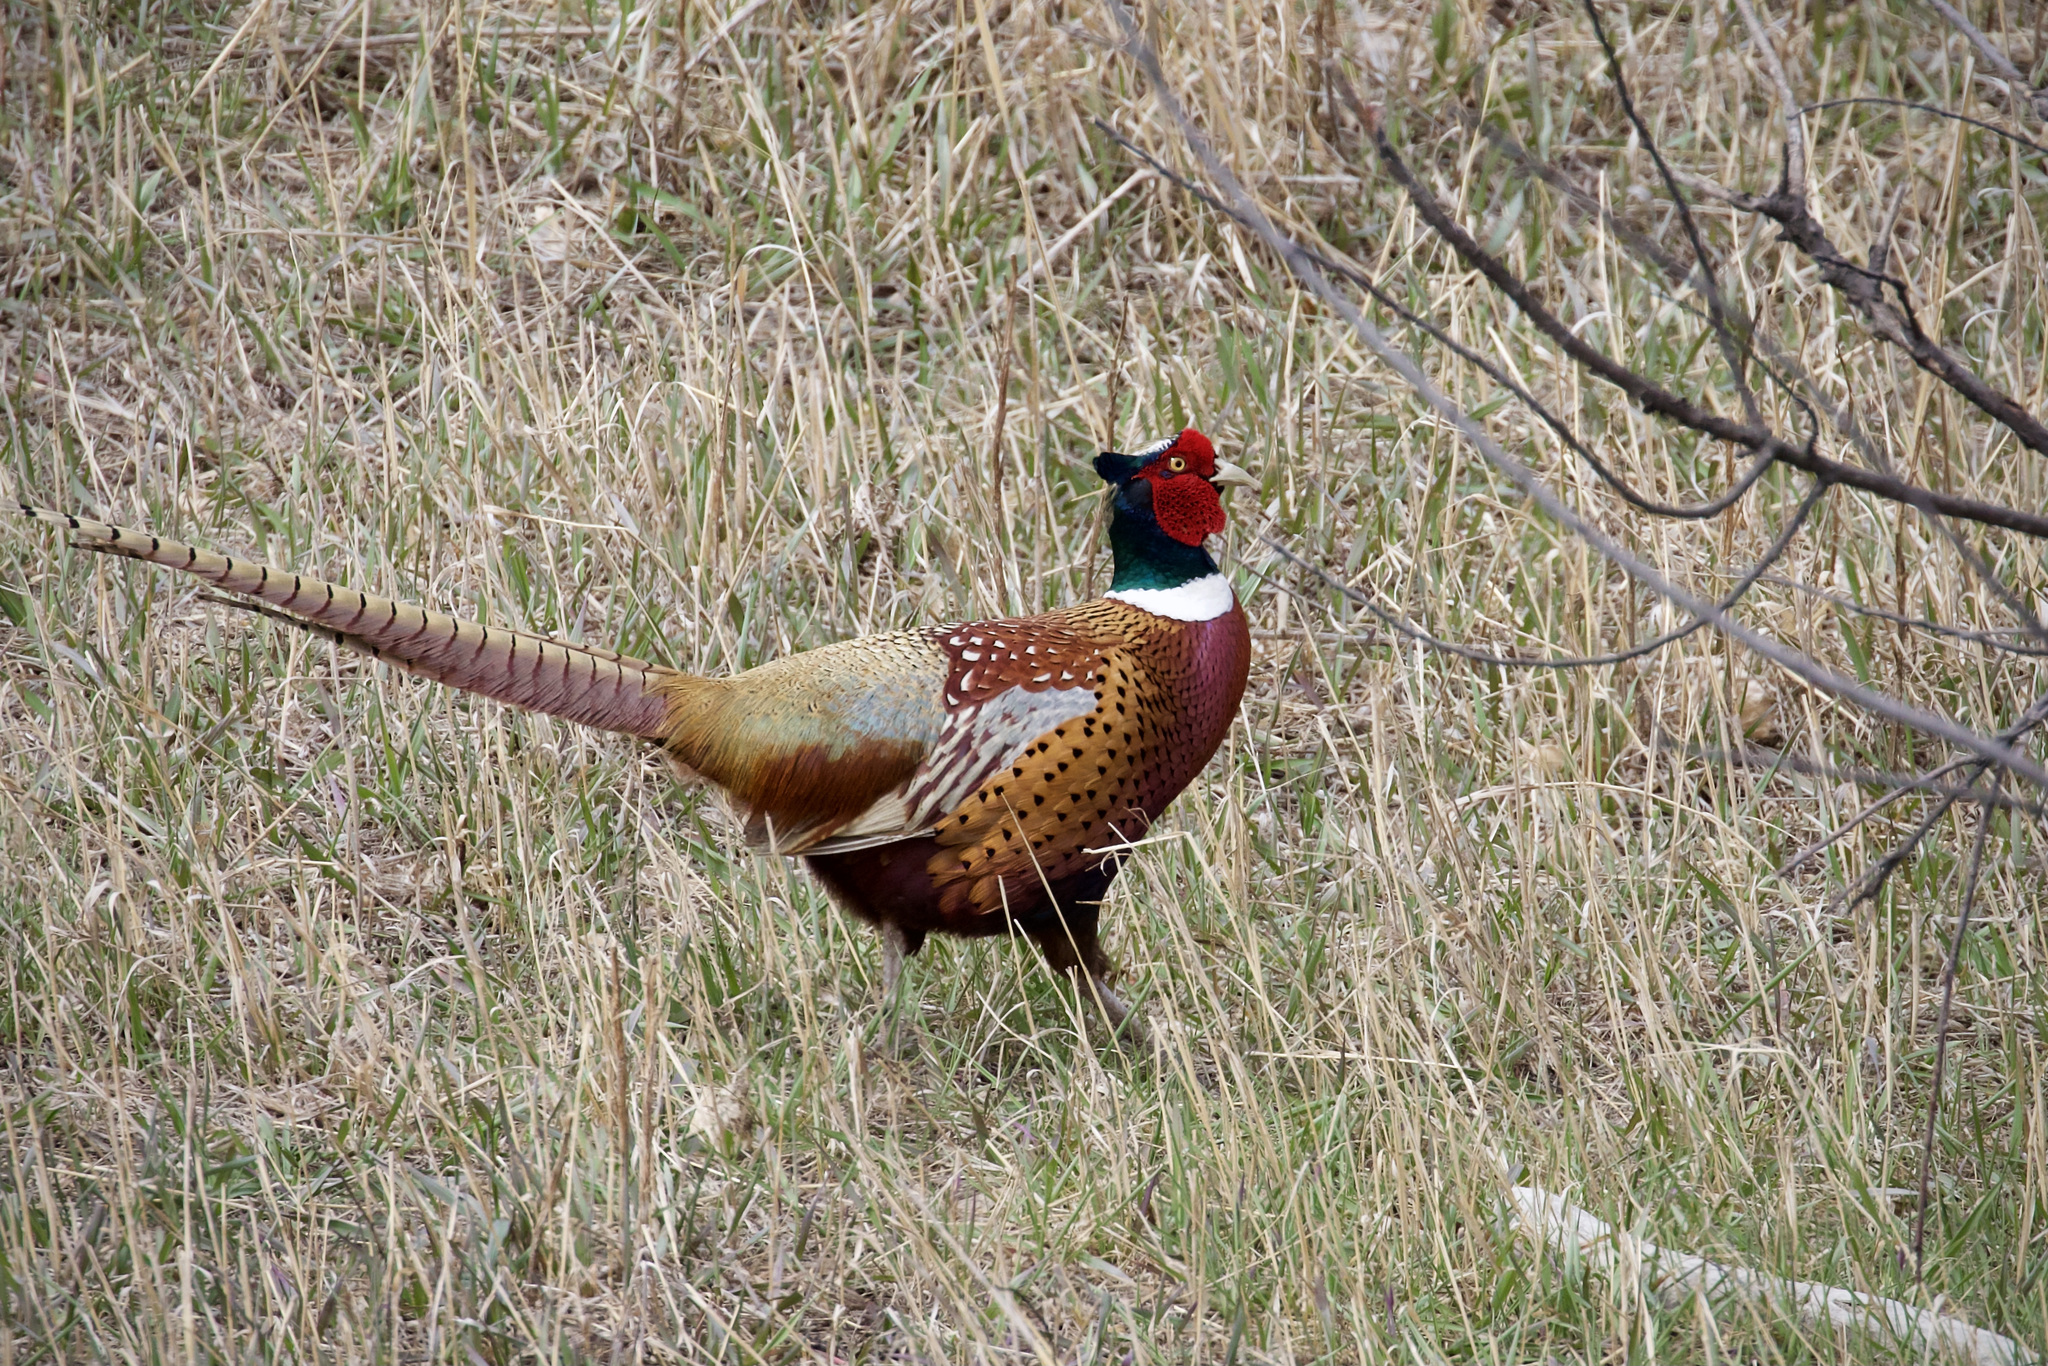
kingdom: Animalia
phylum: Chordata
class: Aves
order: Galliformes
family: Phasianidae
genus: Phasianus
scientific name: Phasianus colchicus
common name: Common pheasant
